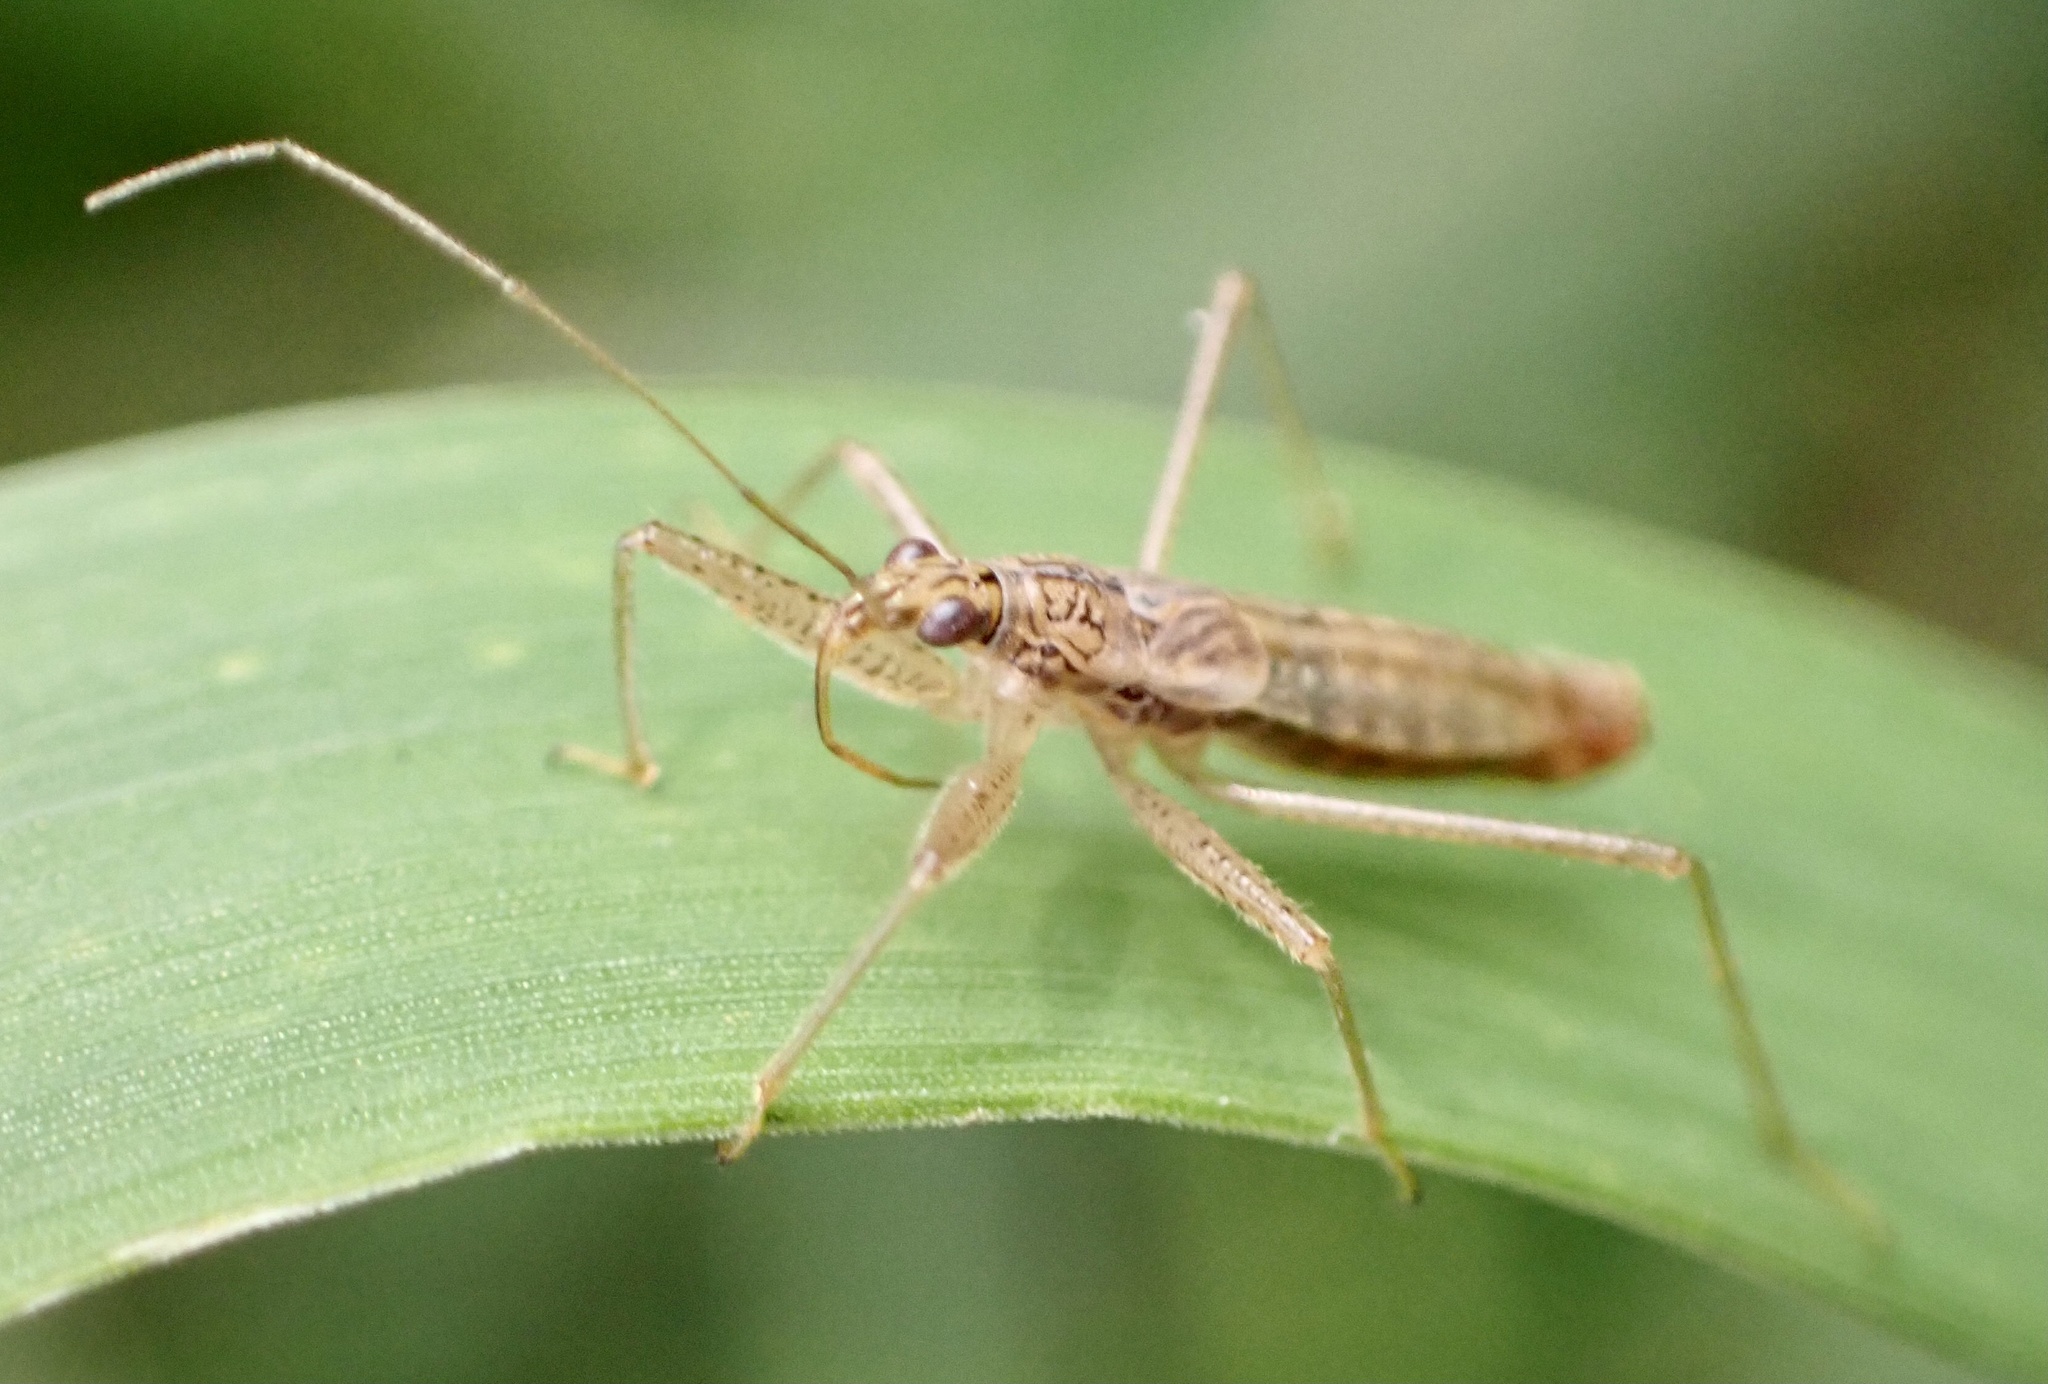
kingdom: Animalia
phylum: Arthropoda
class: Insecta
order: Hemiptera
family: Nabidae
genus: Nabis
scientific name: Nabis limbatus
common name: Marsh damselbug
